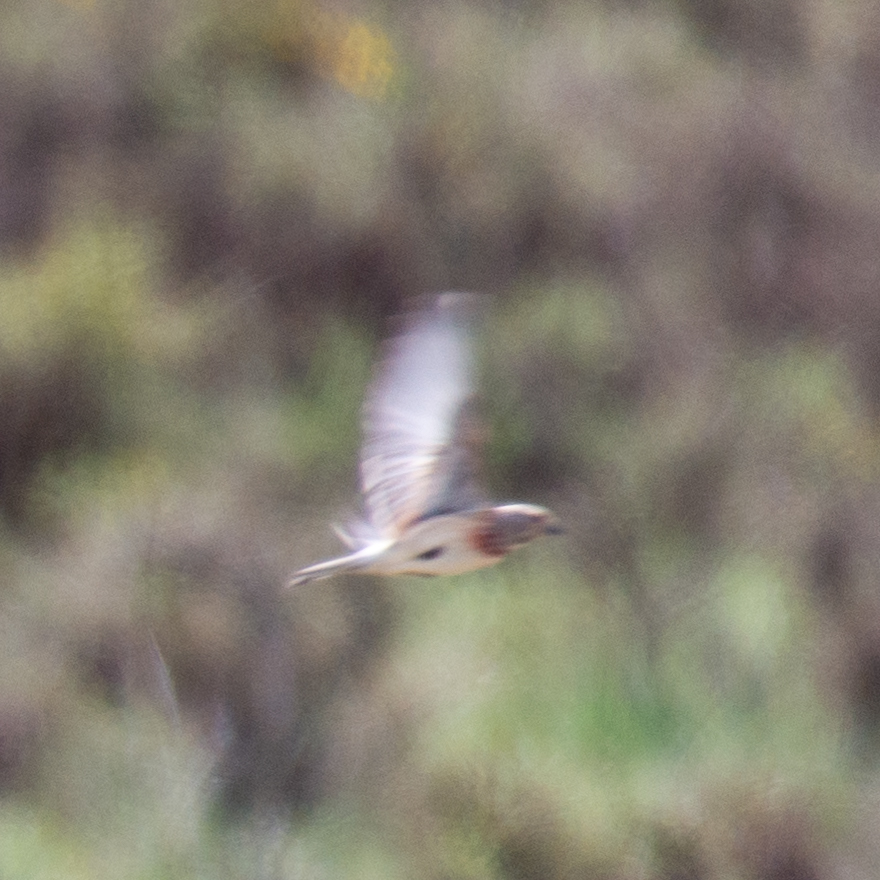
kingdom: Animalia
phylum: Chordata
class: Aves
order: Passeriformes
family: Fringillidae
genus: Linaria
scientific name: Linaria cannabina
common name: Common linnet
